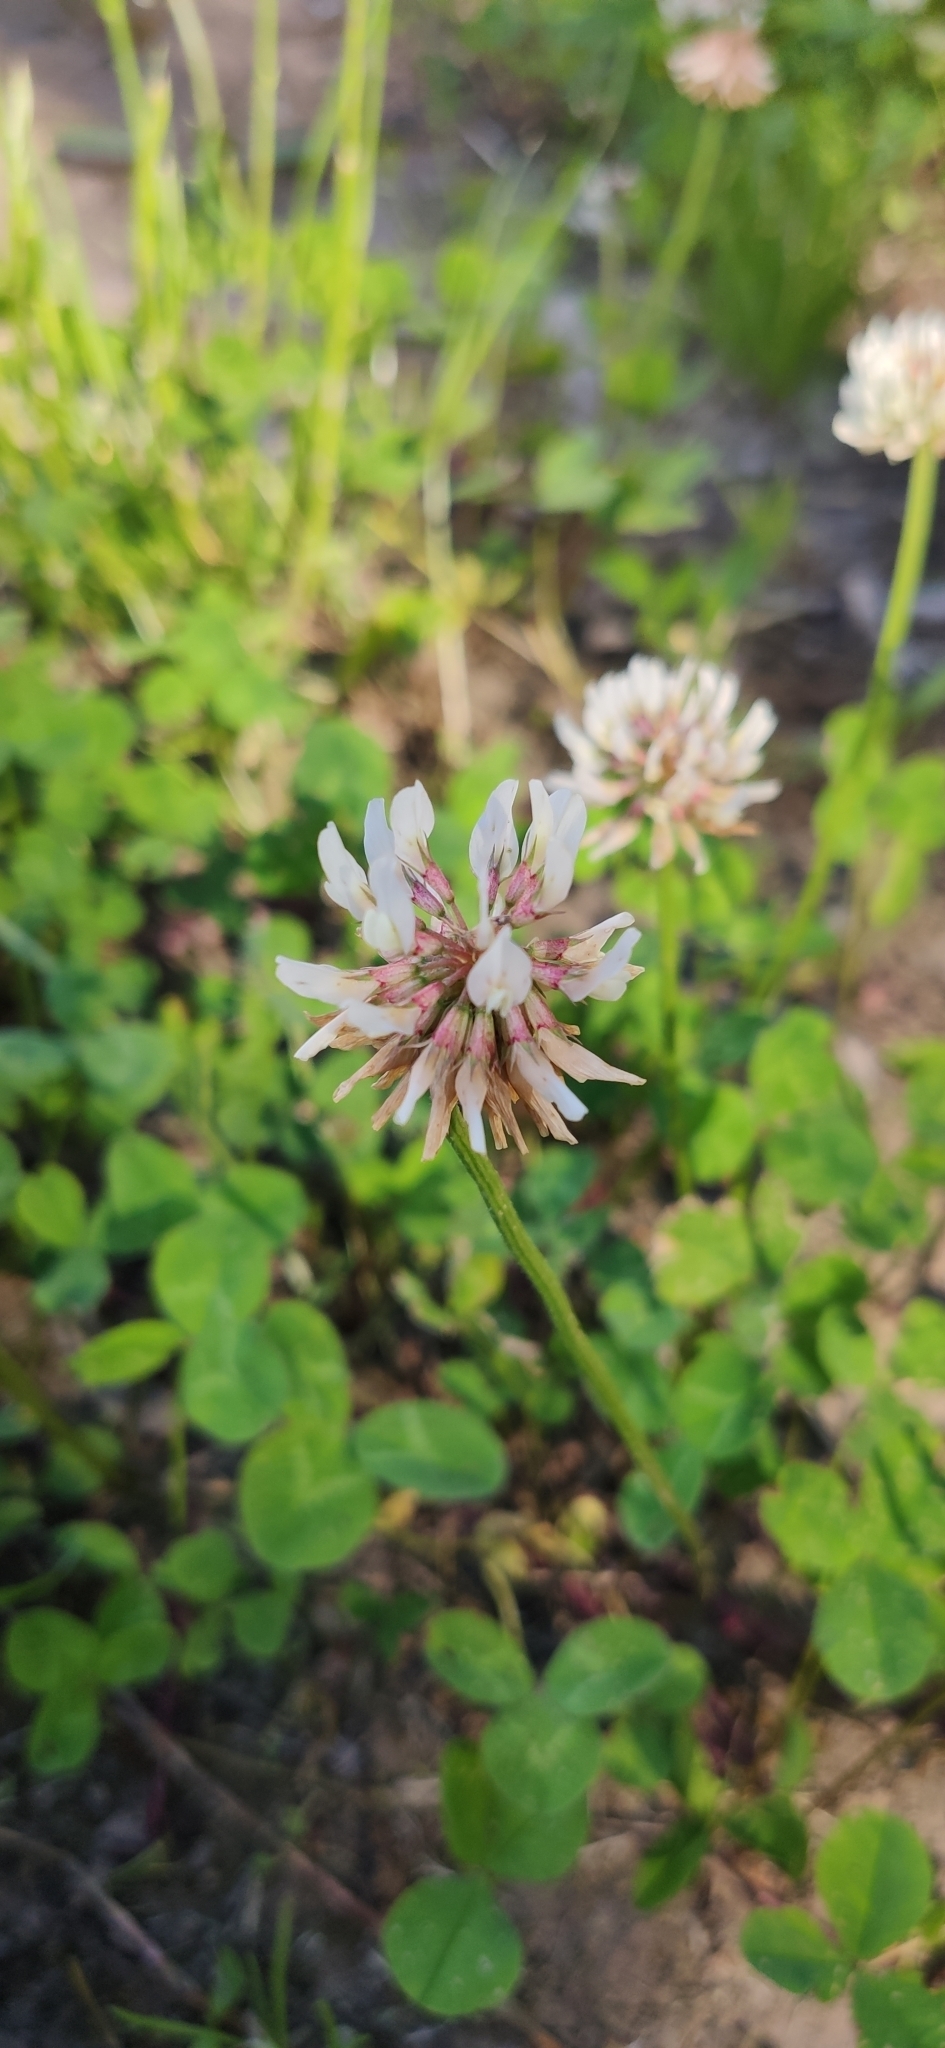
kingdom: Plantae
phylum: Tracheophyta
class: Magnoliopsida
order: Fabales
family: Fabaceae
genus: Trifolium
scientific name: Trifolium repens
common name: White clover
